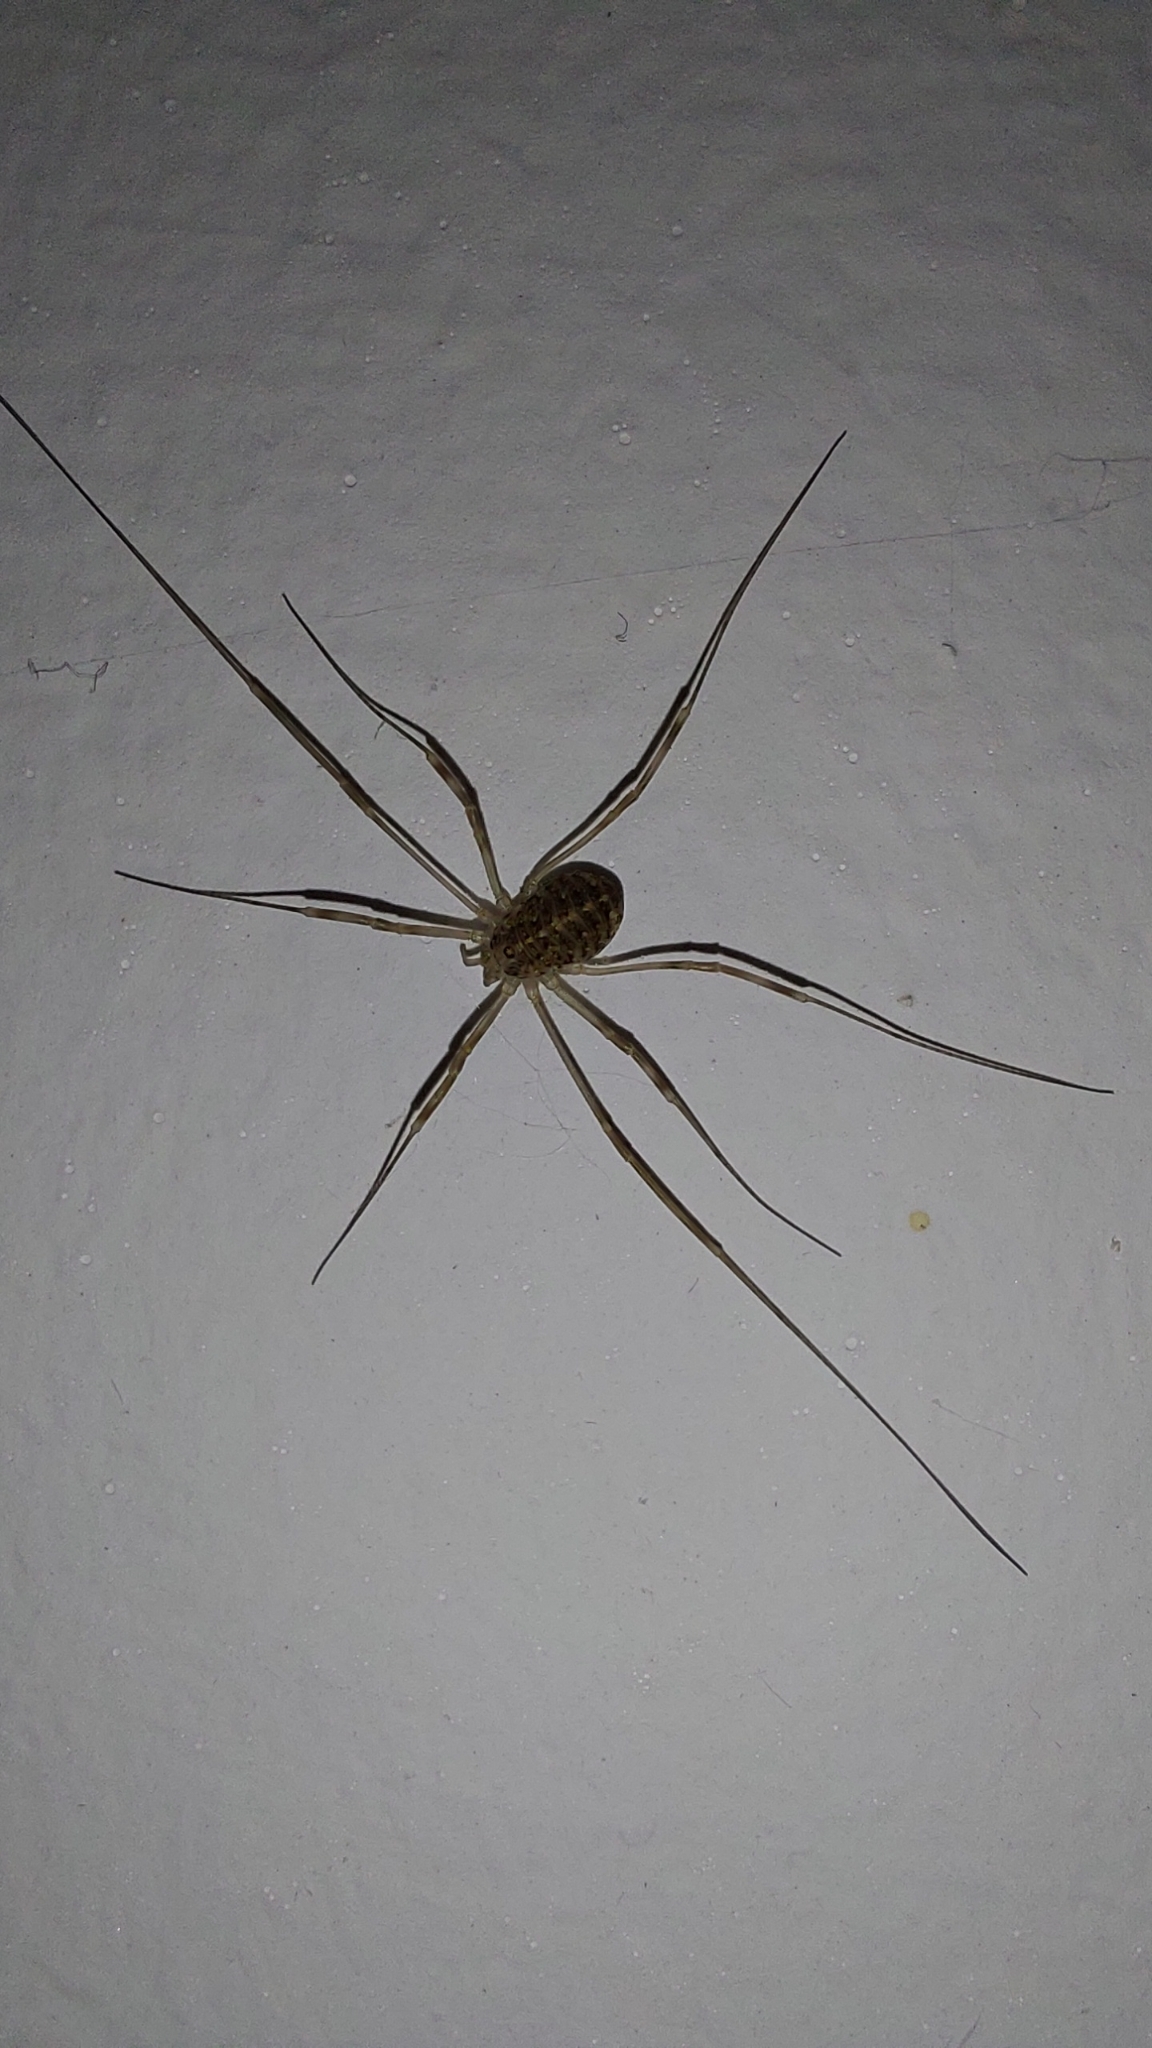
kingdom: Animalia
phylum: Arthropoda
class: Arachnida
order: Opiliones
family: Phalangiidae
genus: Opilio
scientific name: Opilio saxatilis
